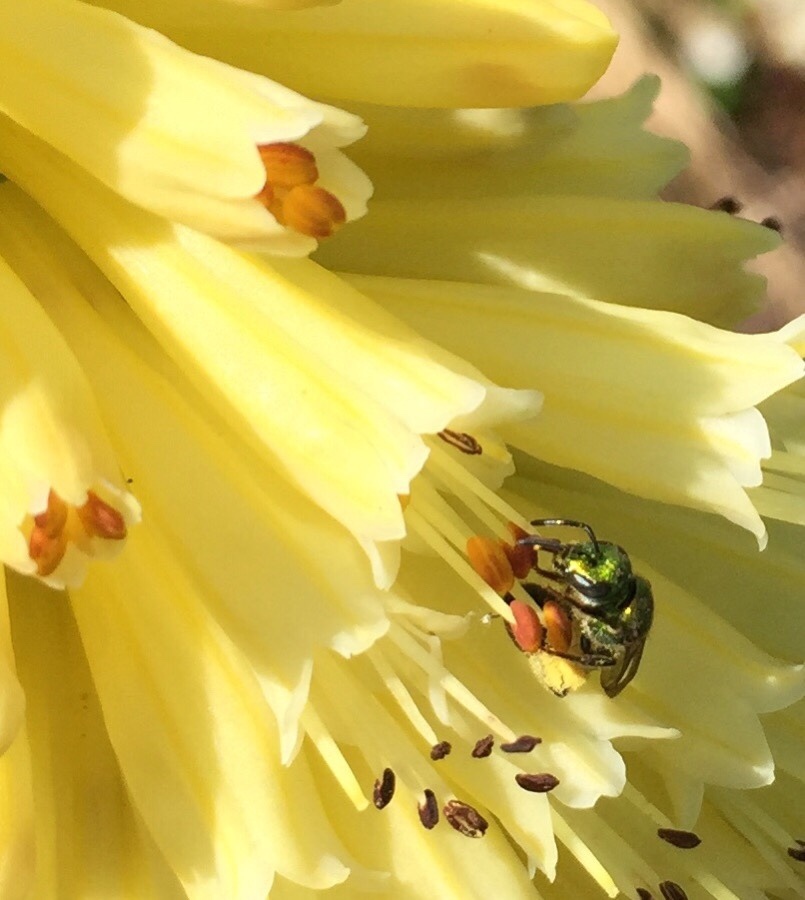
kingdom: Animalia
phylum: Arthropoda
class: Insecta
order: Hymenoptera
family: Halictidae
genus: Augochlora
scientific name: Augochlora pura
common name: Pure green sweat bee
